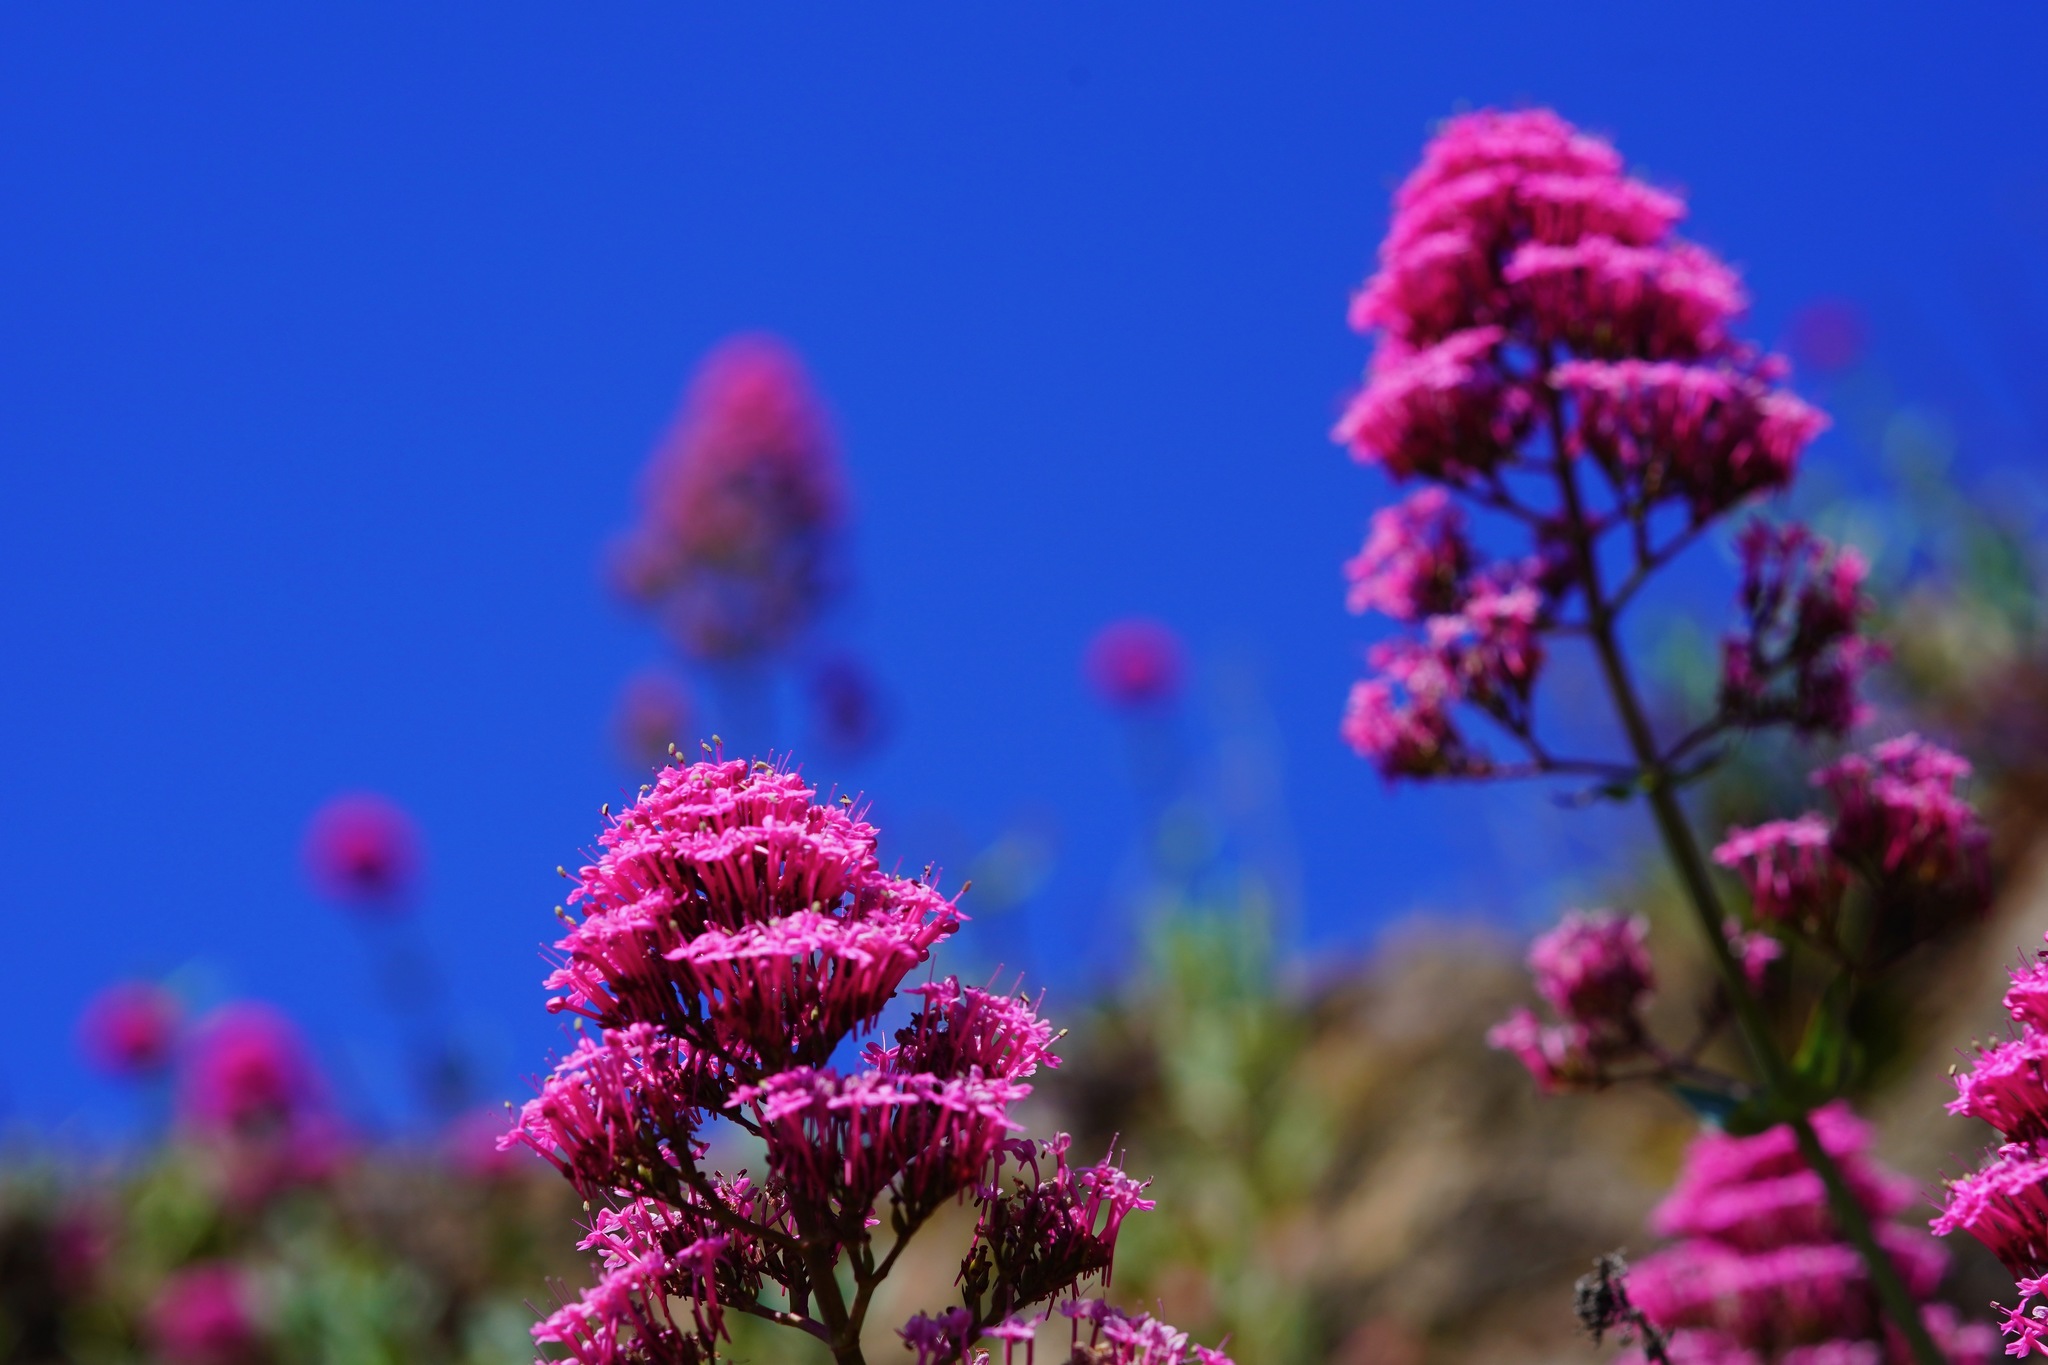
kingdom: Plantae
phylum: Tracheophyta
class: Magnoliopsida
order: Dipsacales
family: Caprifoliaceae
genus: Centranthus
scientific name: Centranthus ruber
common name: Red valerian
